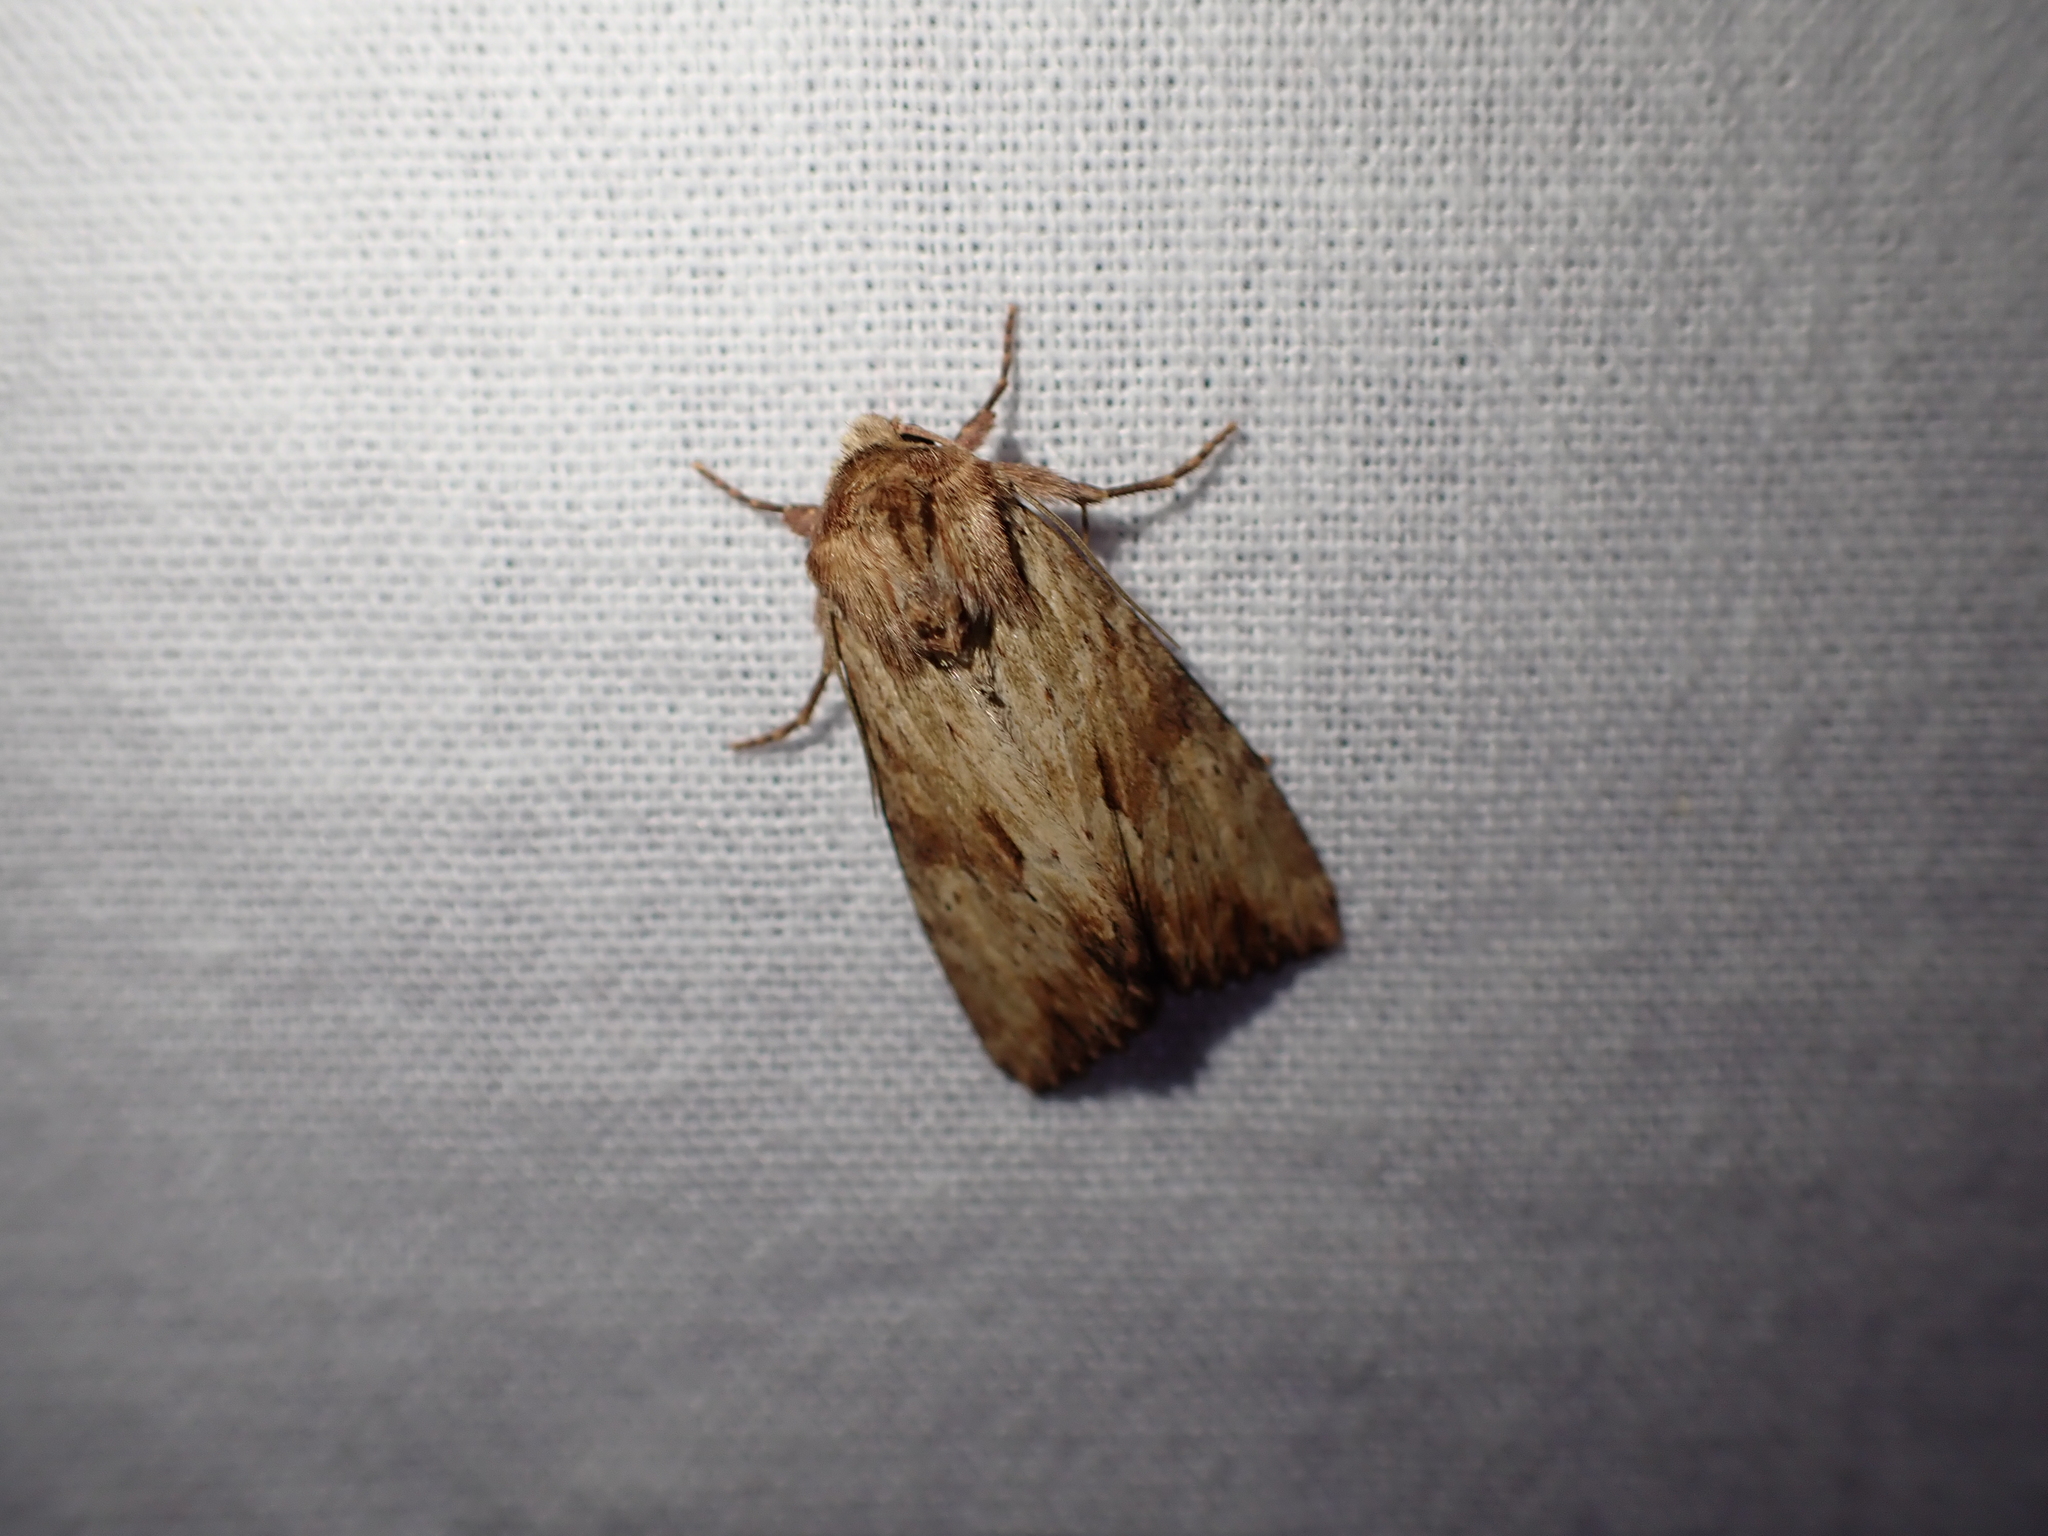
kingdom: Animalia
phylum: Arthropoda
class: Insecta
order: Lepidoptera
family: Noctuidae
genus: Apamea
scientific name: Apamea sublustris
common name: Reddish light arches
